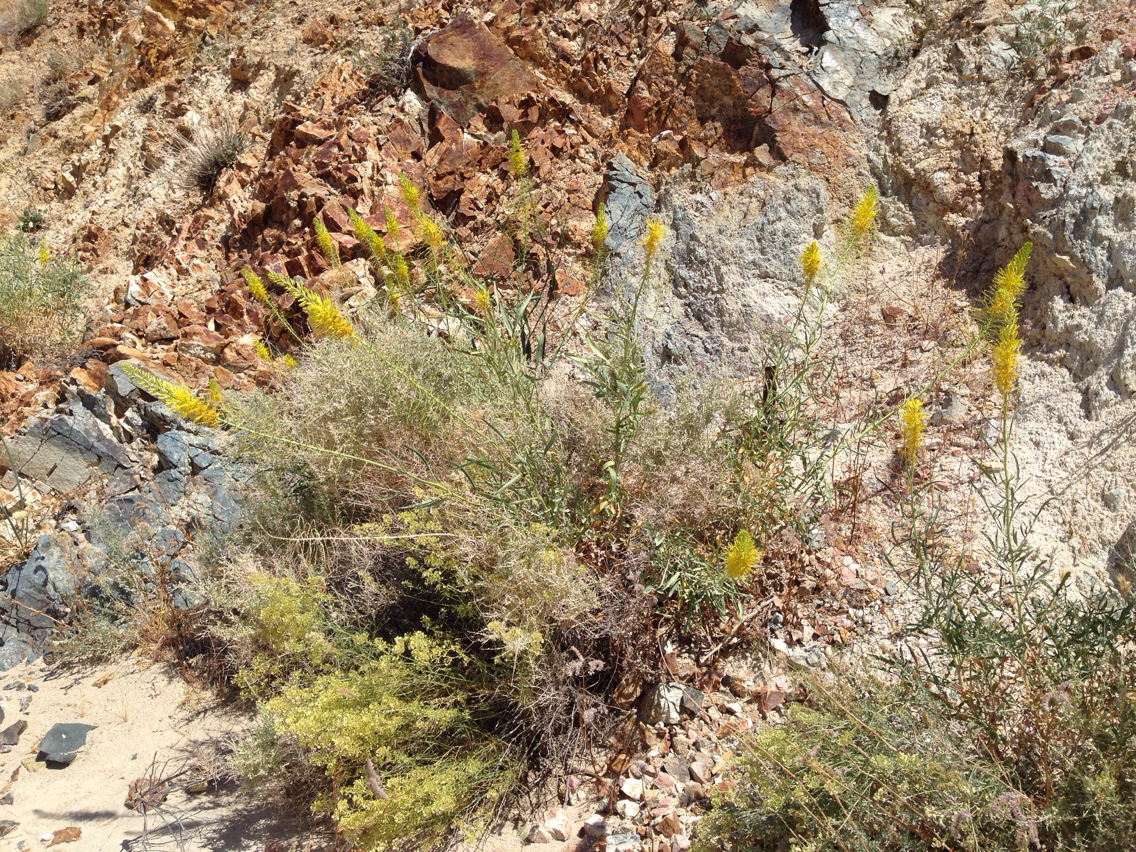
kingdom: Plantae
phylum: Tracheophyta
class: Magnoliopsida
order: Brassicales
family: Brassicaceae
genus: Stanleya
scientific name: Stanleya pinnata
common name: Prince's-plume
